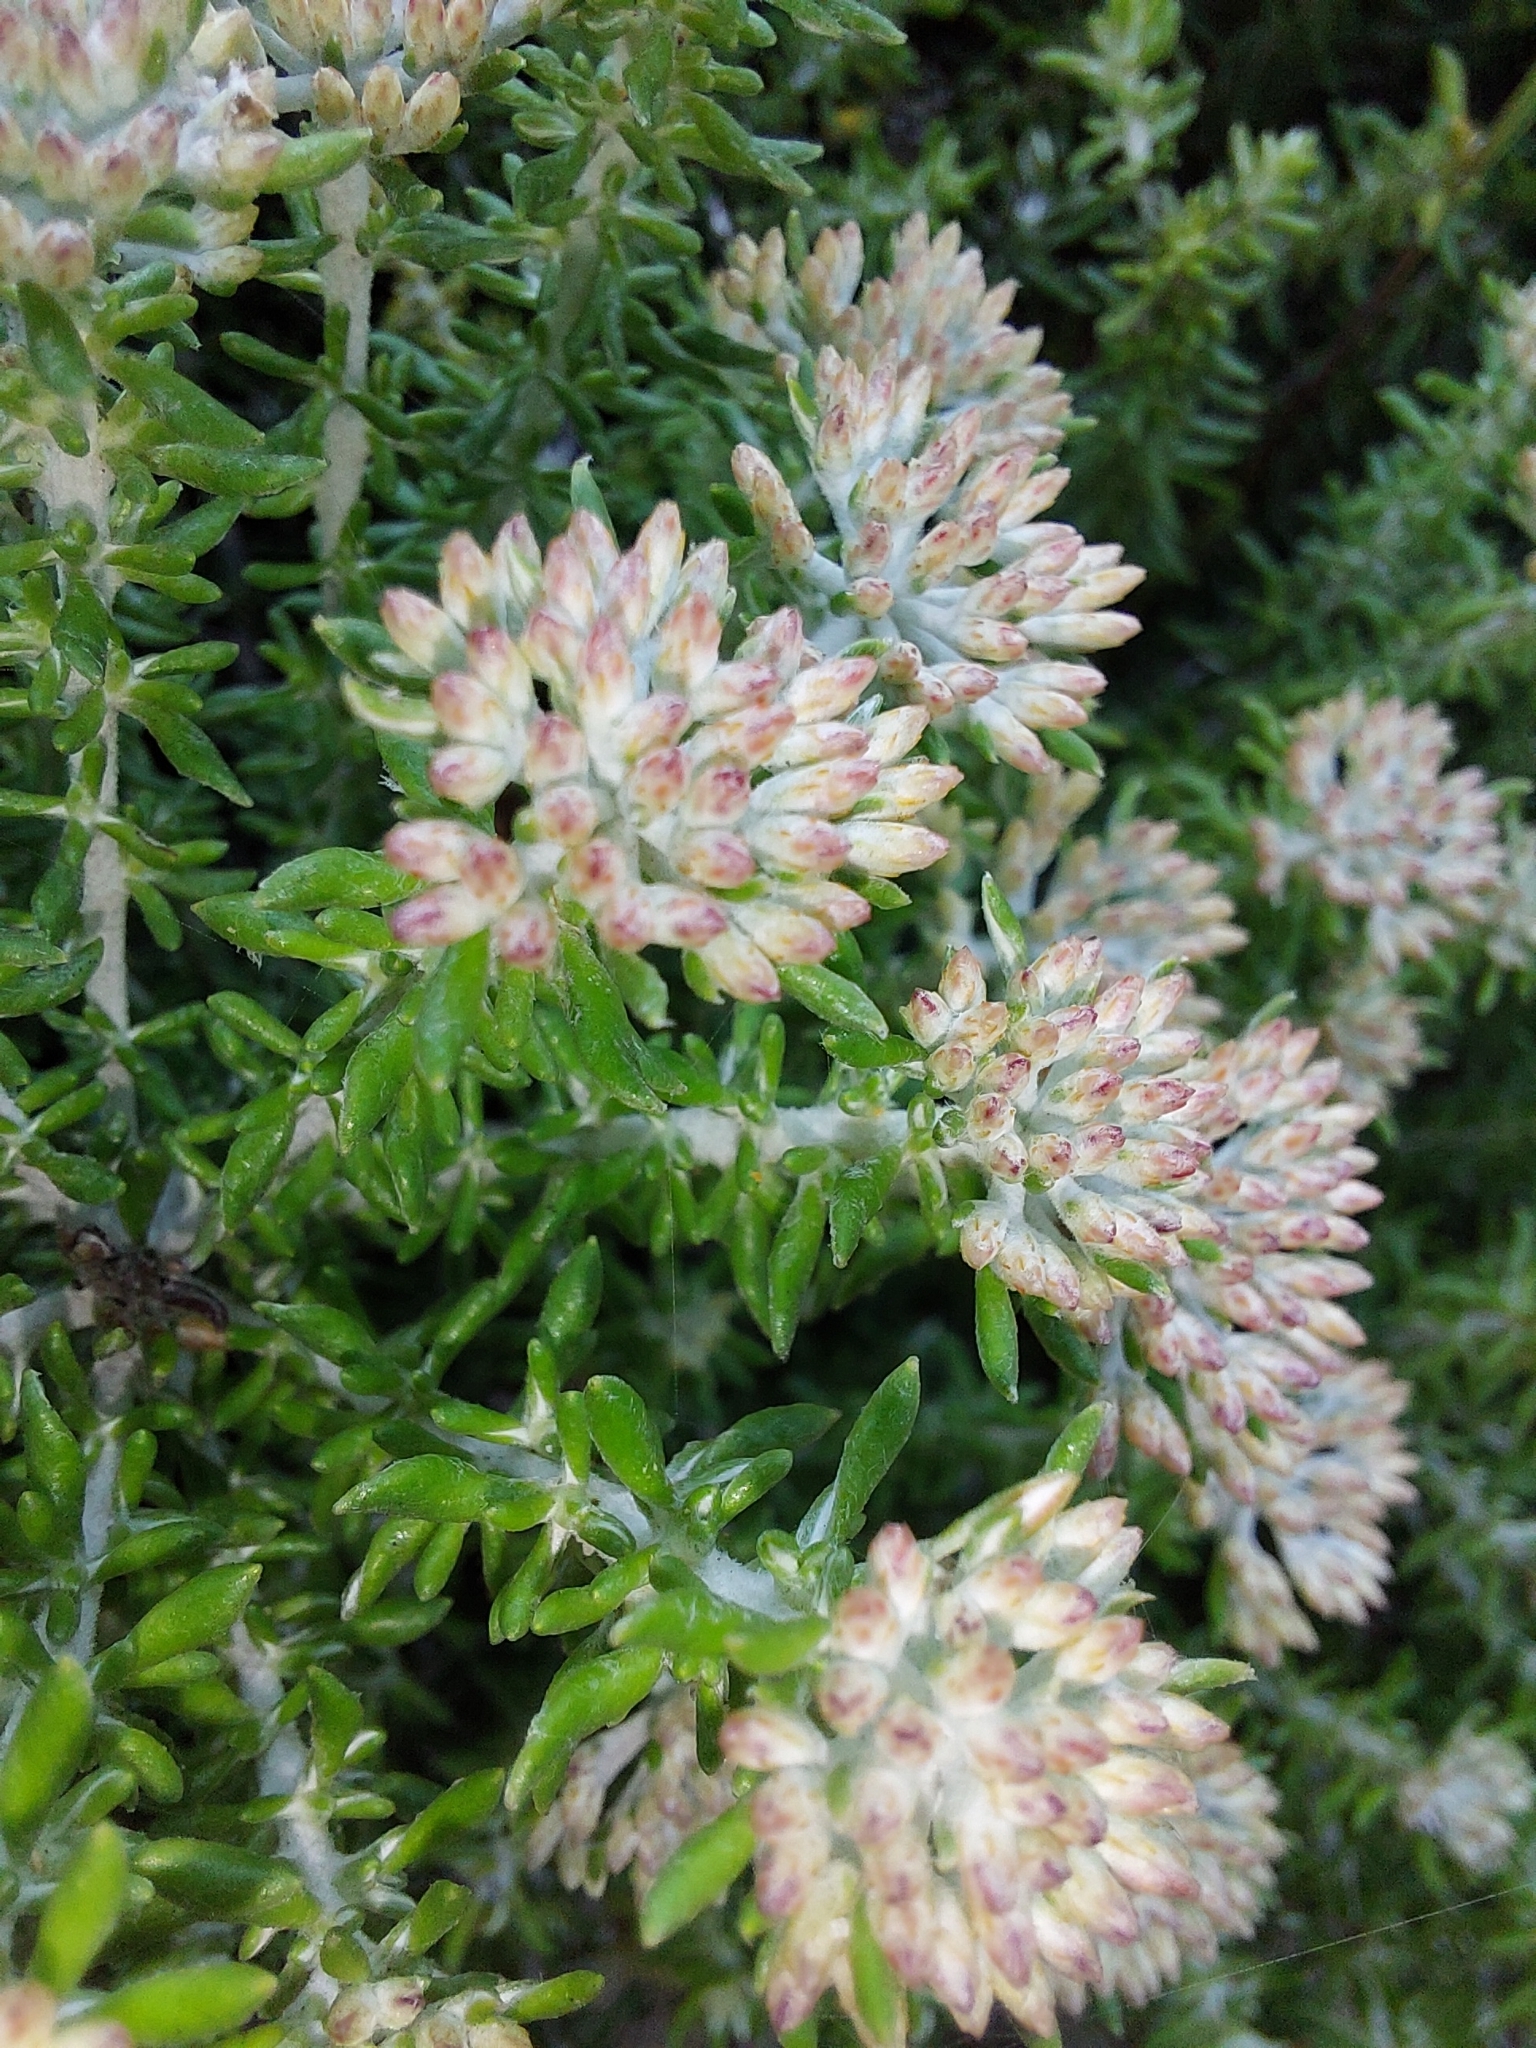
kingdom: Plantae
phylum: Tracheophyta
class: Magnoliopsida
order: Asterales
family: Asteraceae
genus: Metalasia
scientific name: Metalasia muricata
